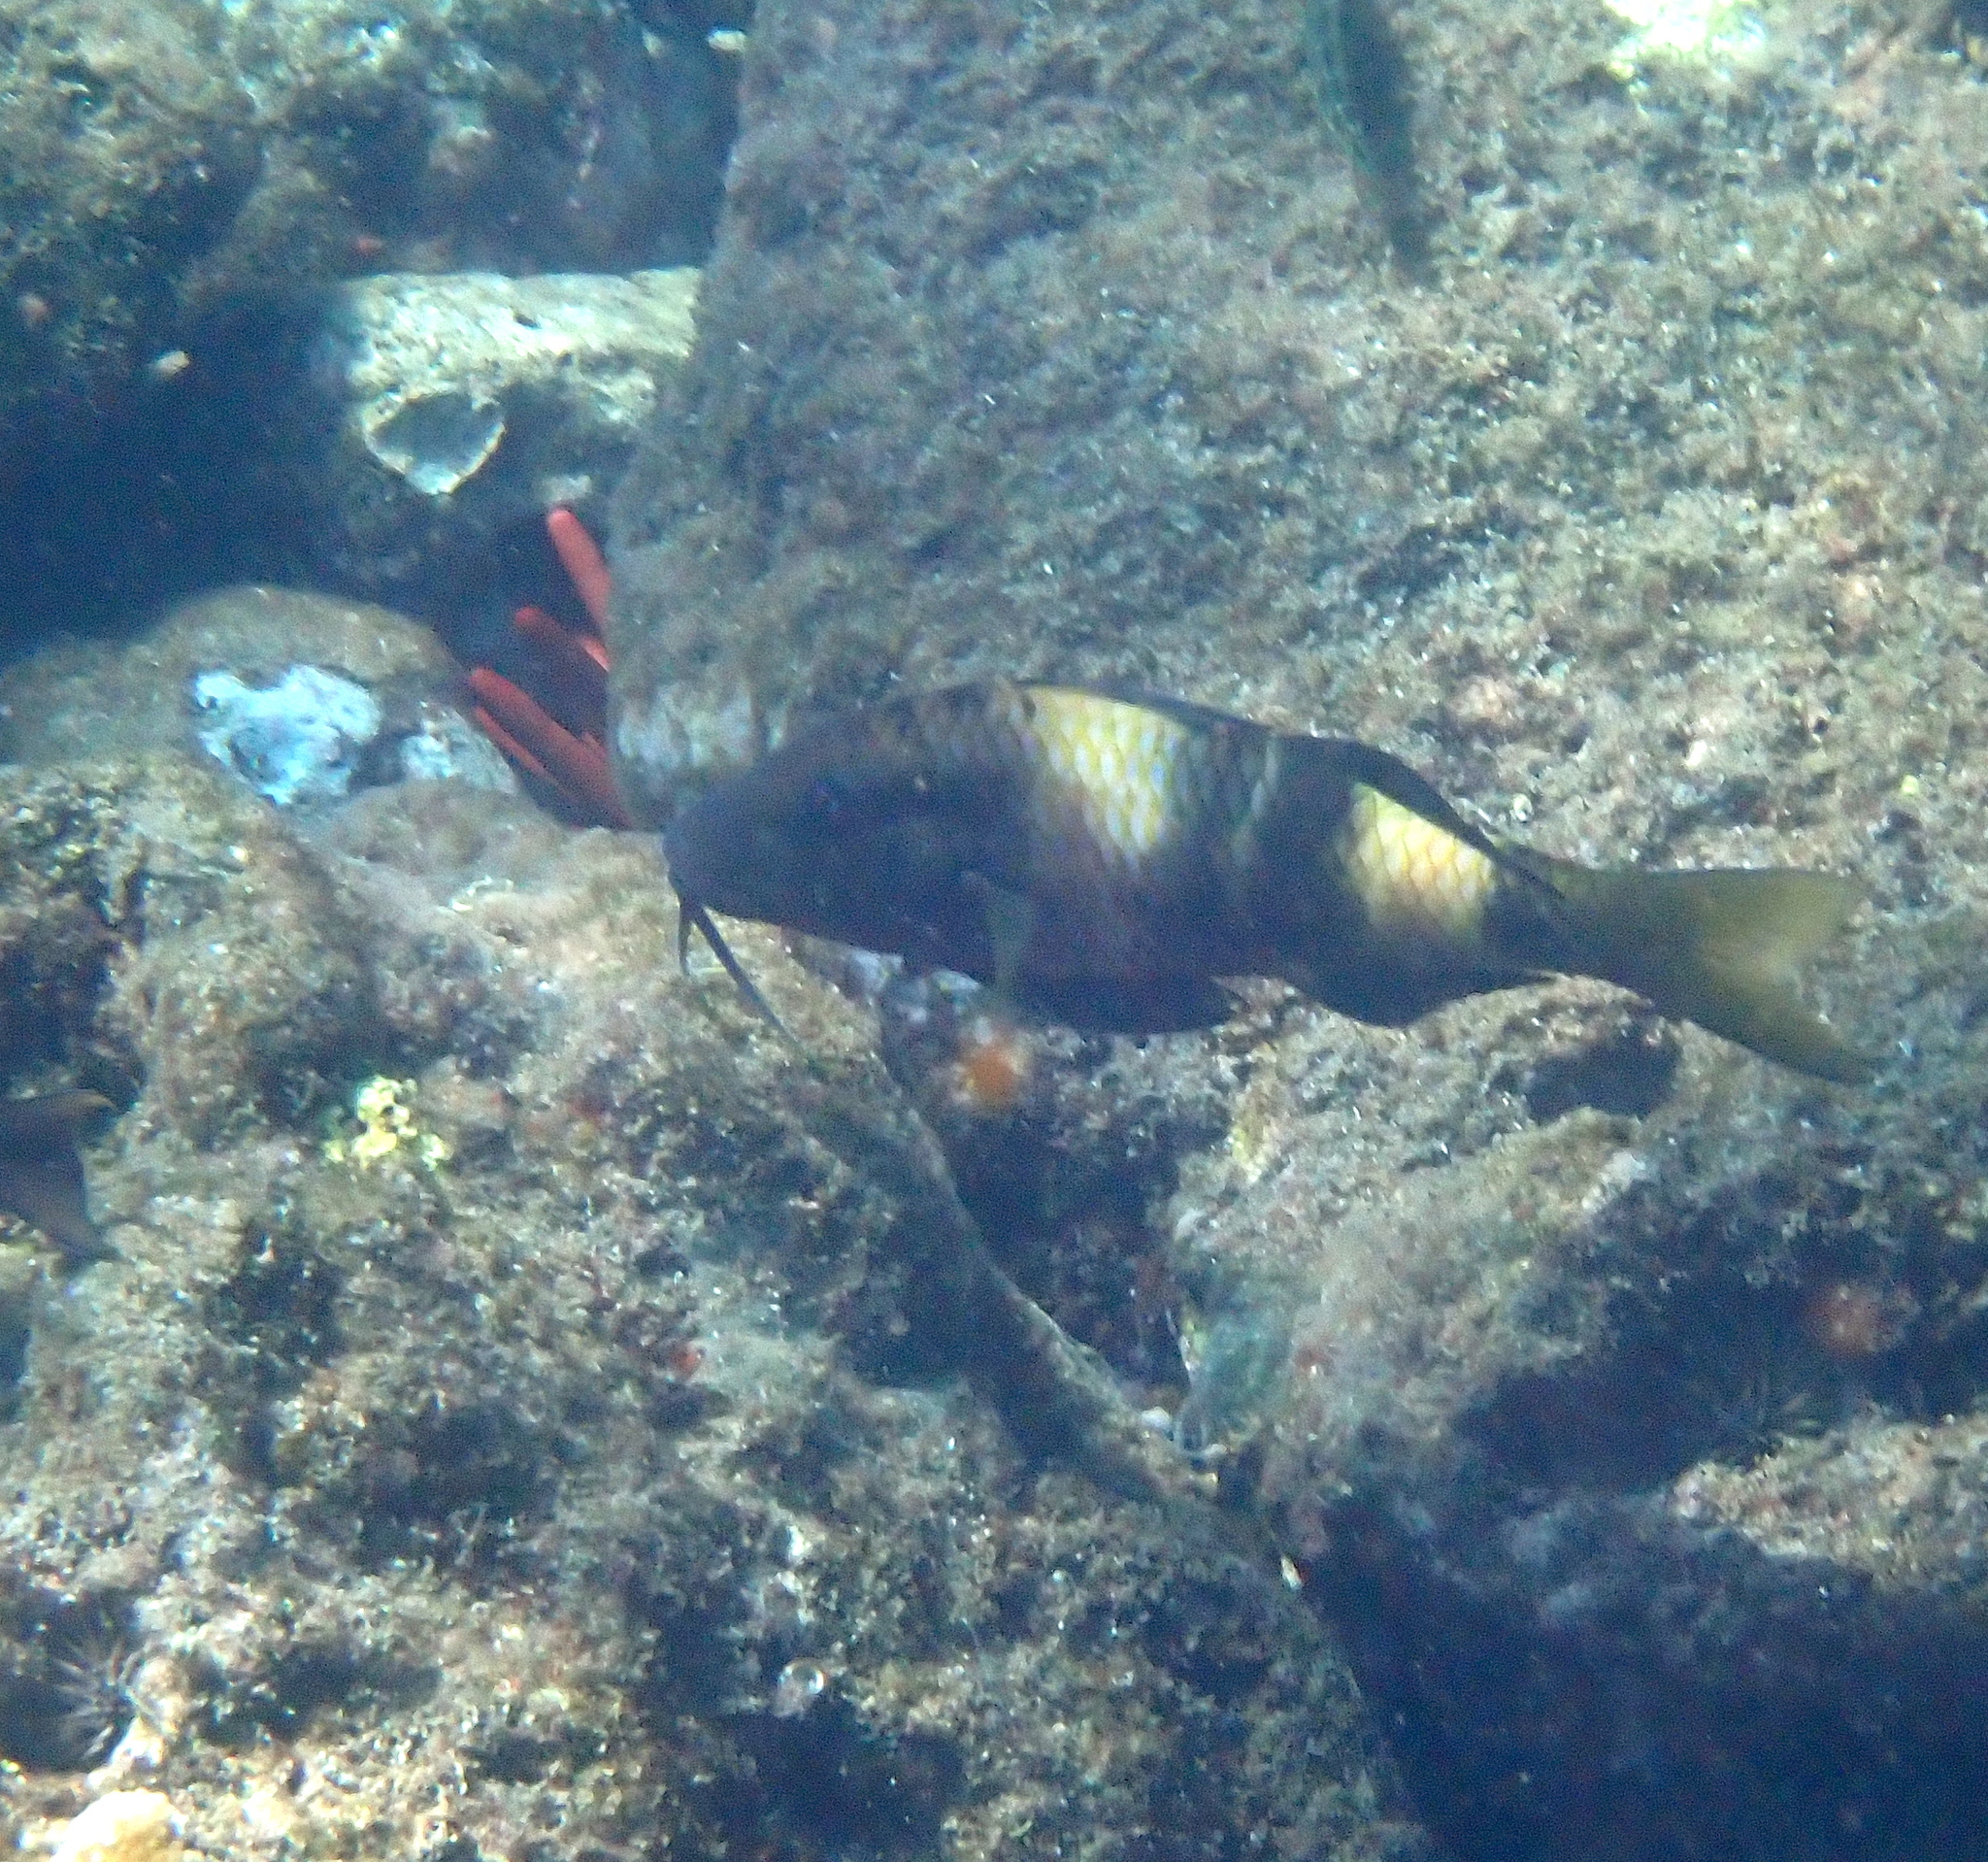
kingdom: Animalia
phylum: Chordata
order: Perciformes
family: Mullidae
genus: Parupeneus
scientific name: Parupeneus multifasciatus
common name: Manybar goatfish
